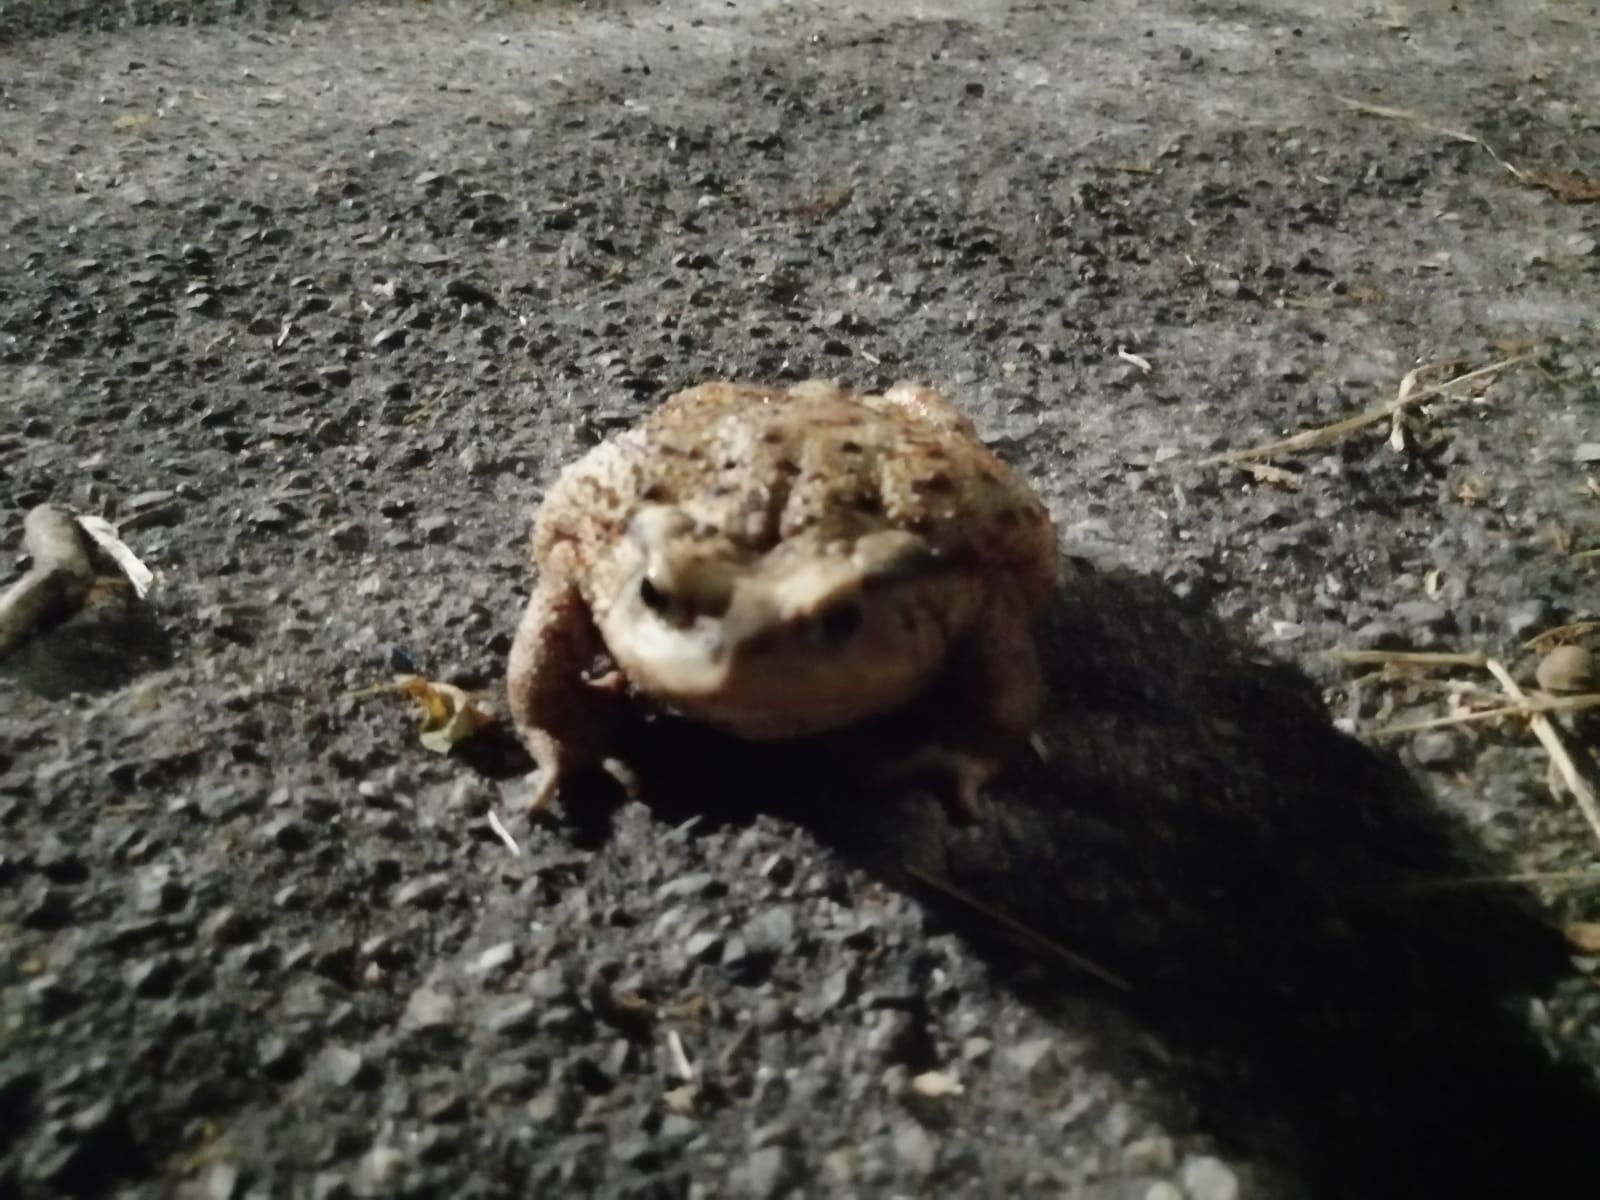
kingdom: Animalia
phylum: Chordata
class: Amphibia
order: Anura
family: Bufonidae
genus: Bufo
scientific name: Bufo bufo
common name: Common toad
